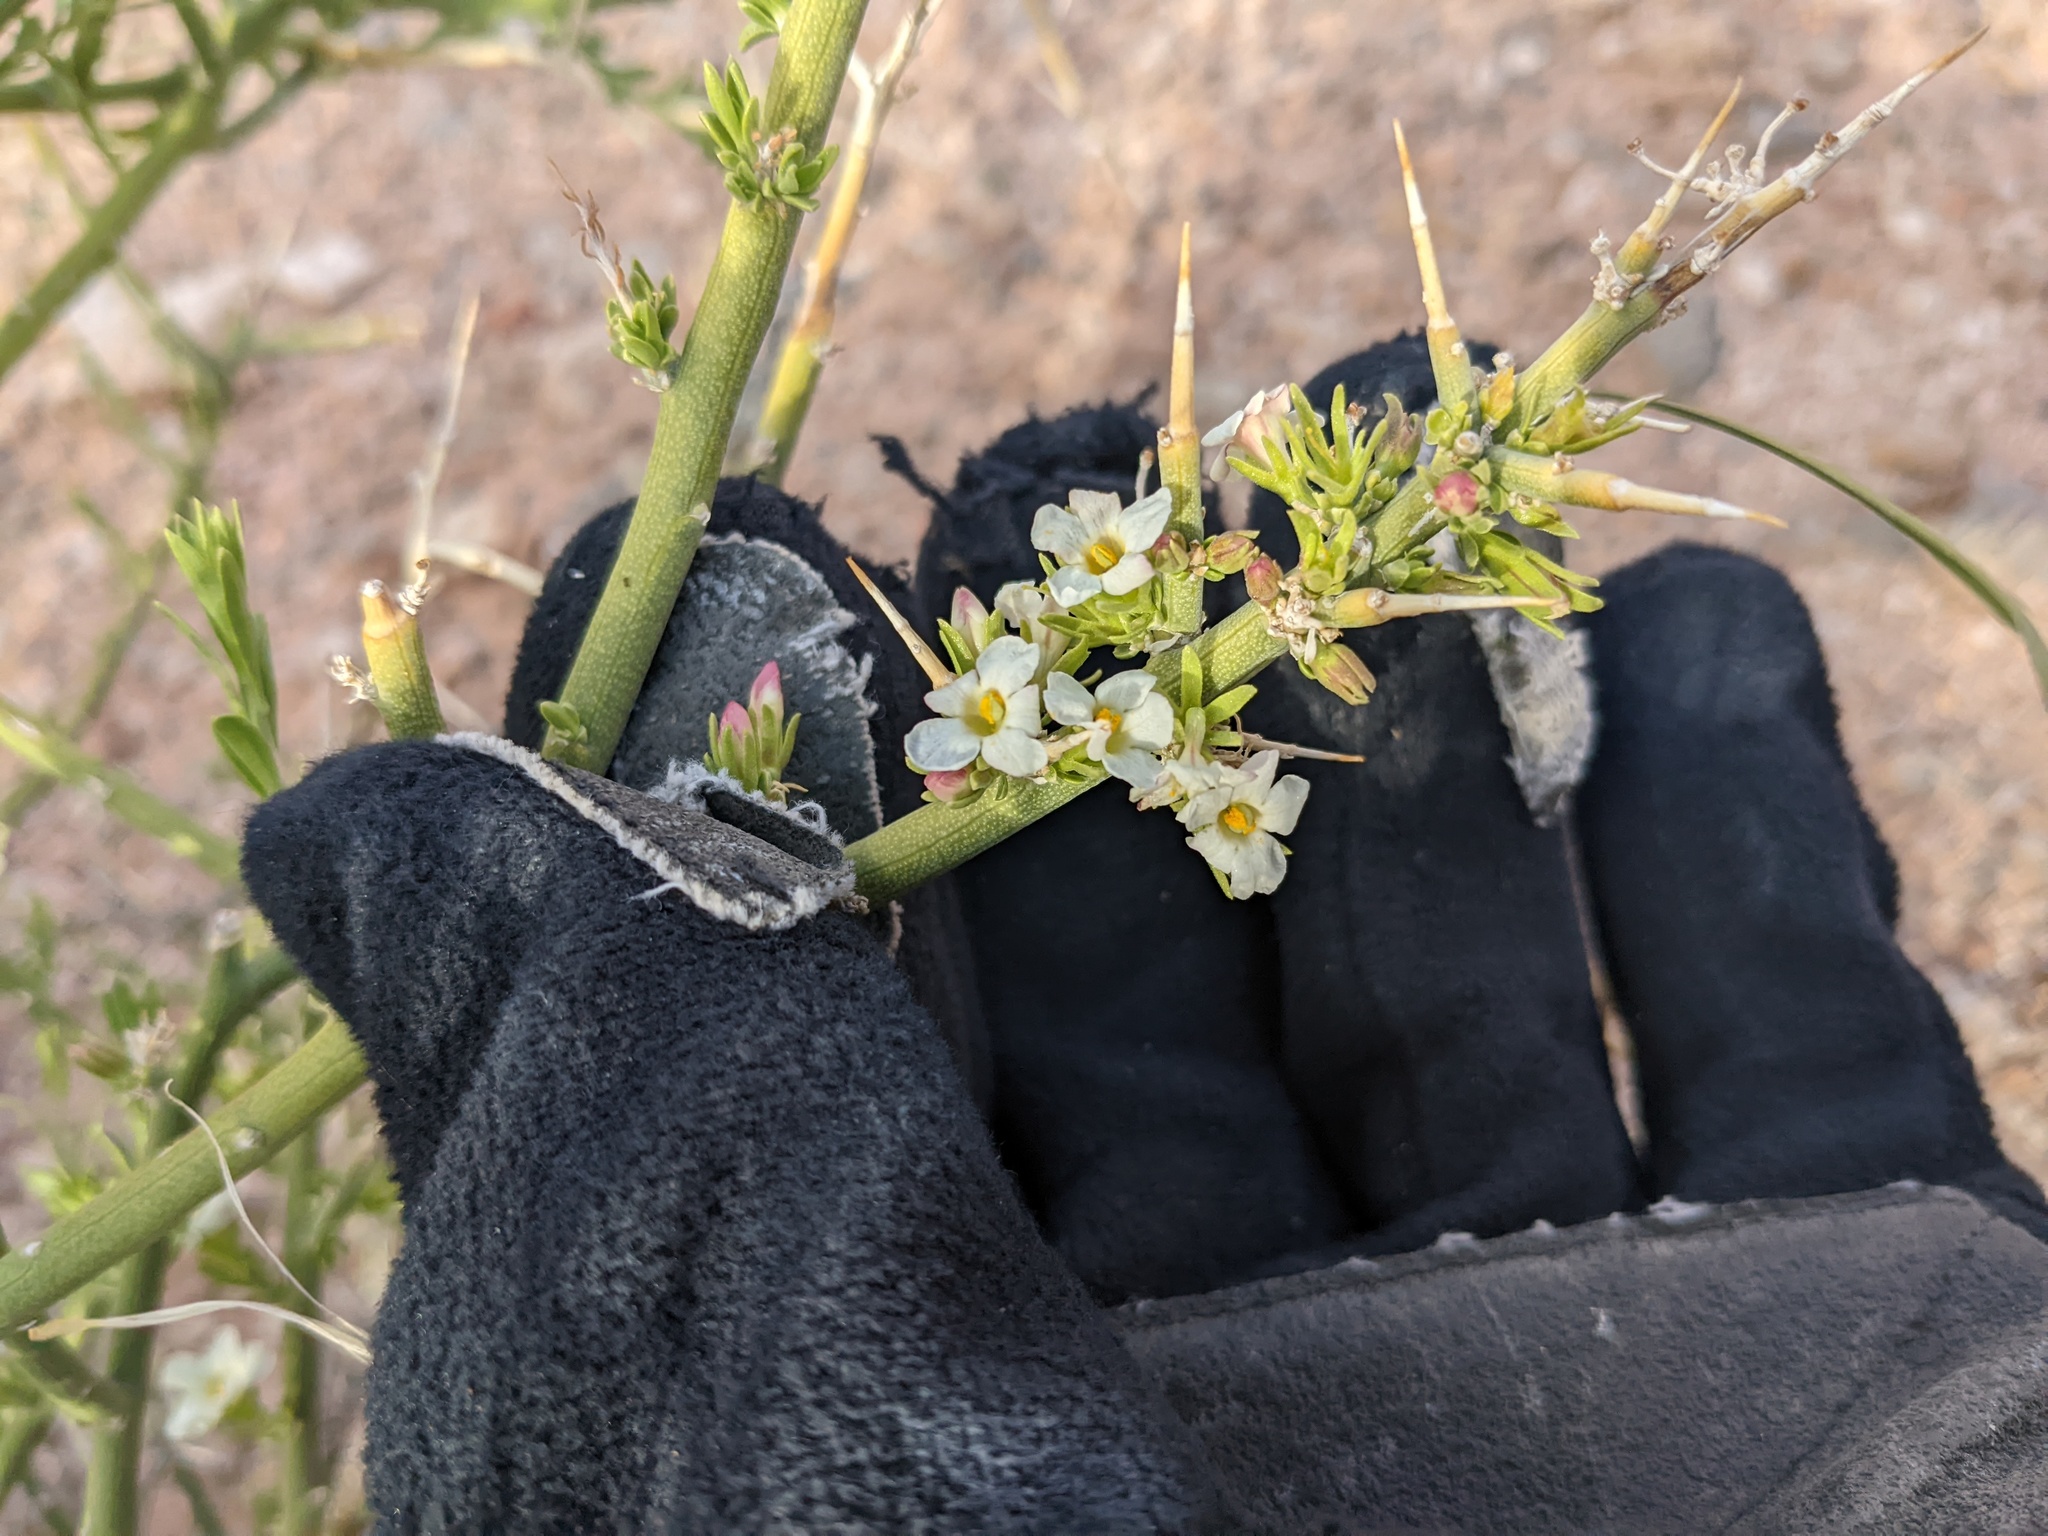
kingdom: Plantae
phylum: Tracheophyta
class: Magnoliopsida
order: Lamiales
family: Oleaceae
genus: Menodora
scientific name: Menodora spinescens
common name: Spiny menodora
